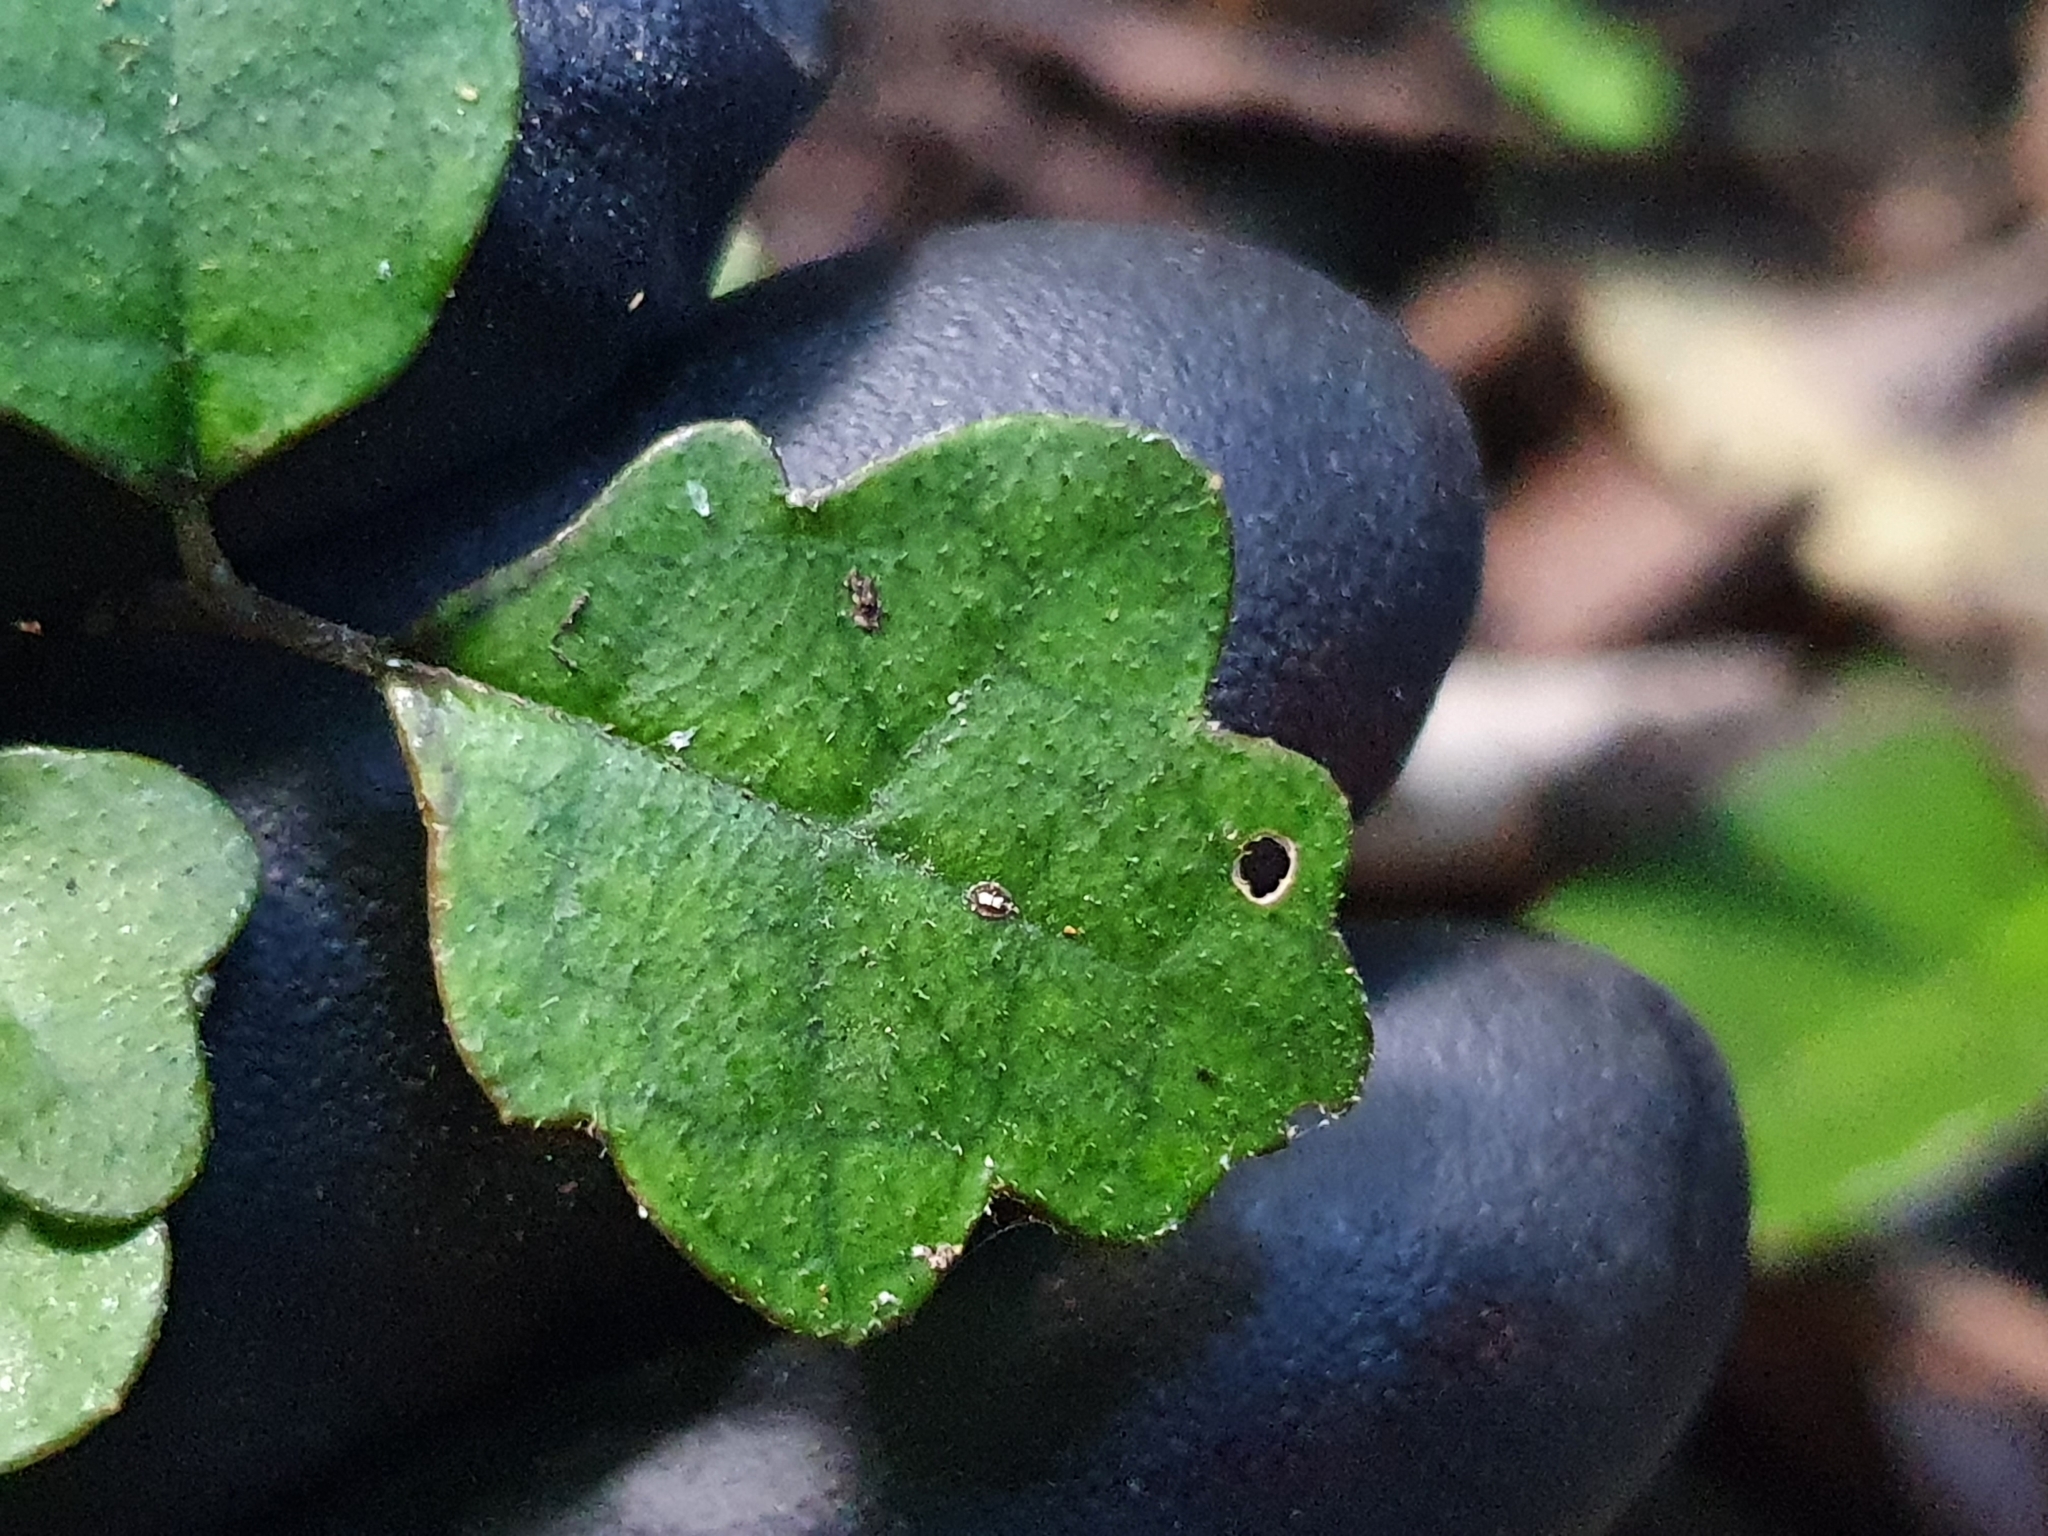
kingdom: Plantae
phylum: Tracheophyta
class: Magnoliopsida
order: Apiales
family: Pennantiaceae
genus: Pennantia
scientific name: Pennantia corymbosa
